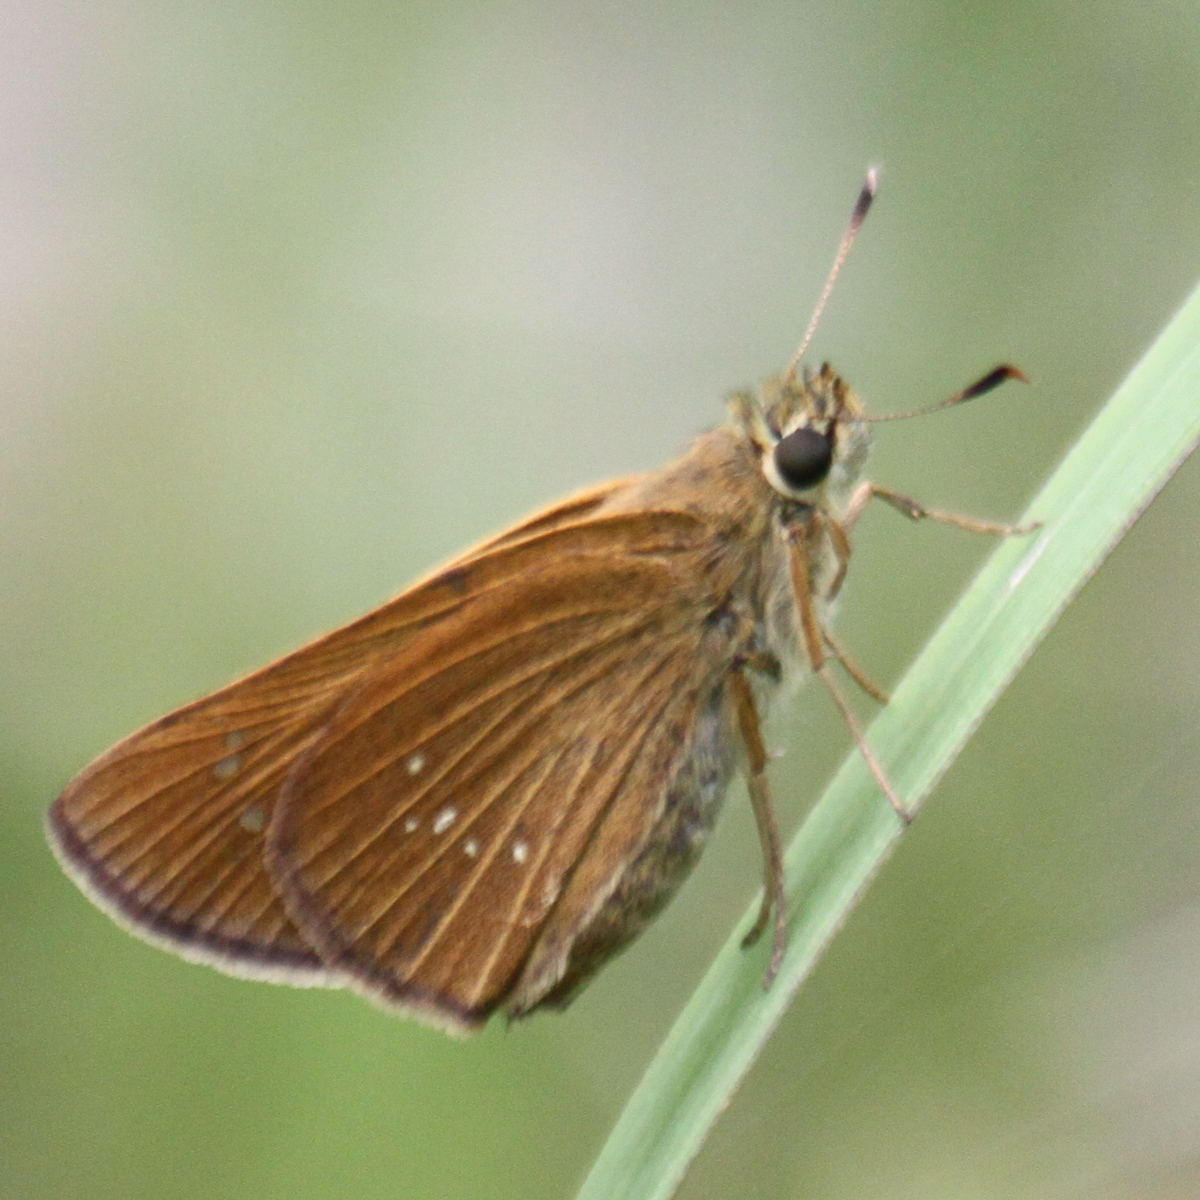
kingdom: Animalia
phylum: Arthropoda
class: Insecta
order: Lepidoptera
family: Hesperiidae
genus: Polytremis
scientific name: Polytremis lubricans
